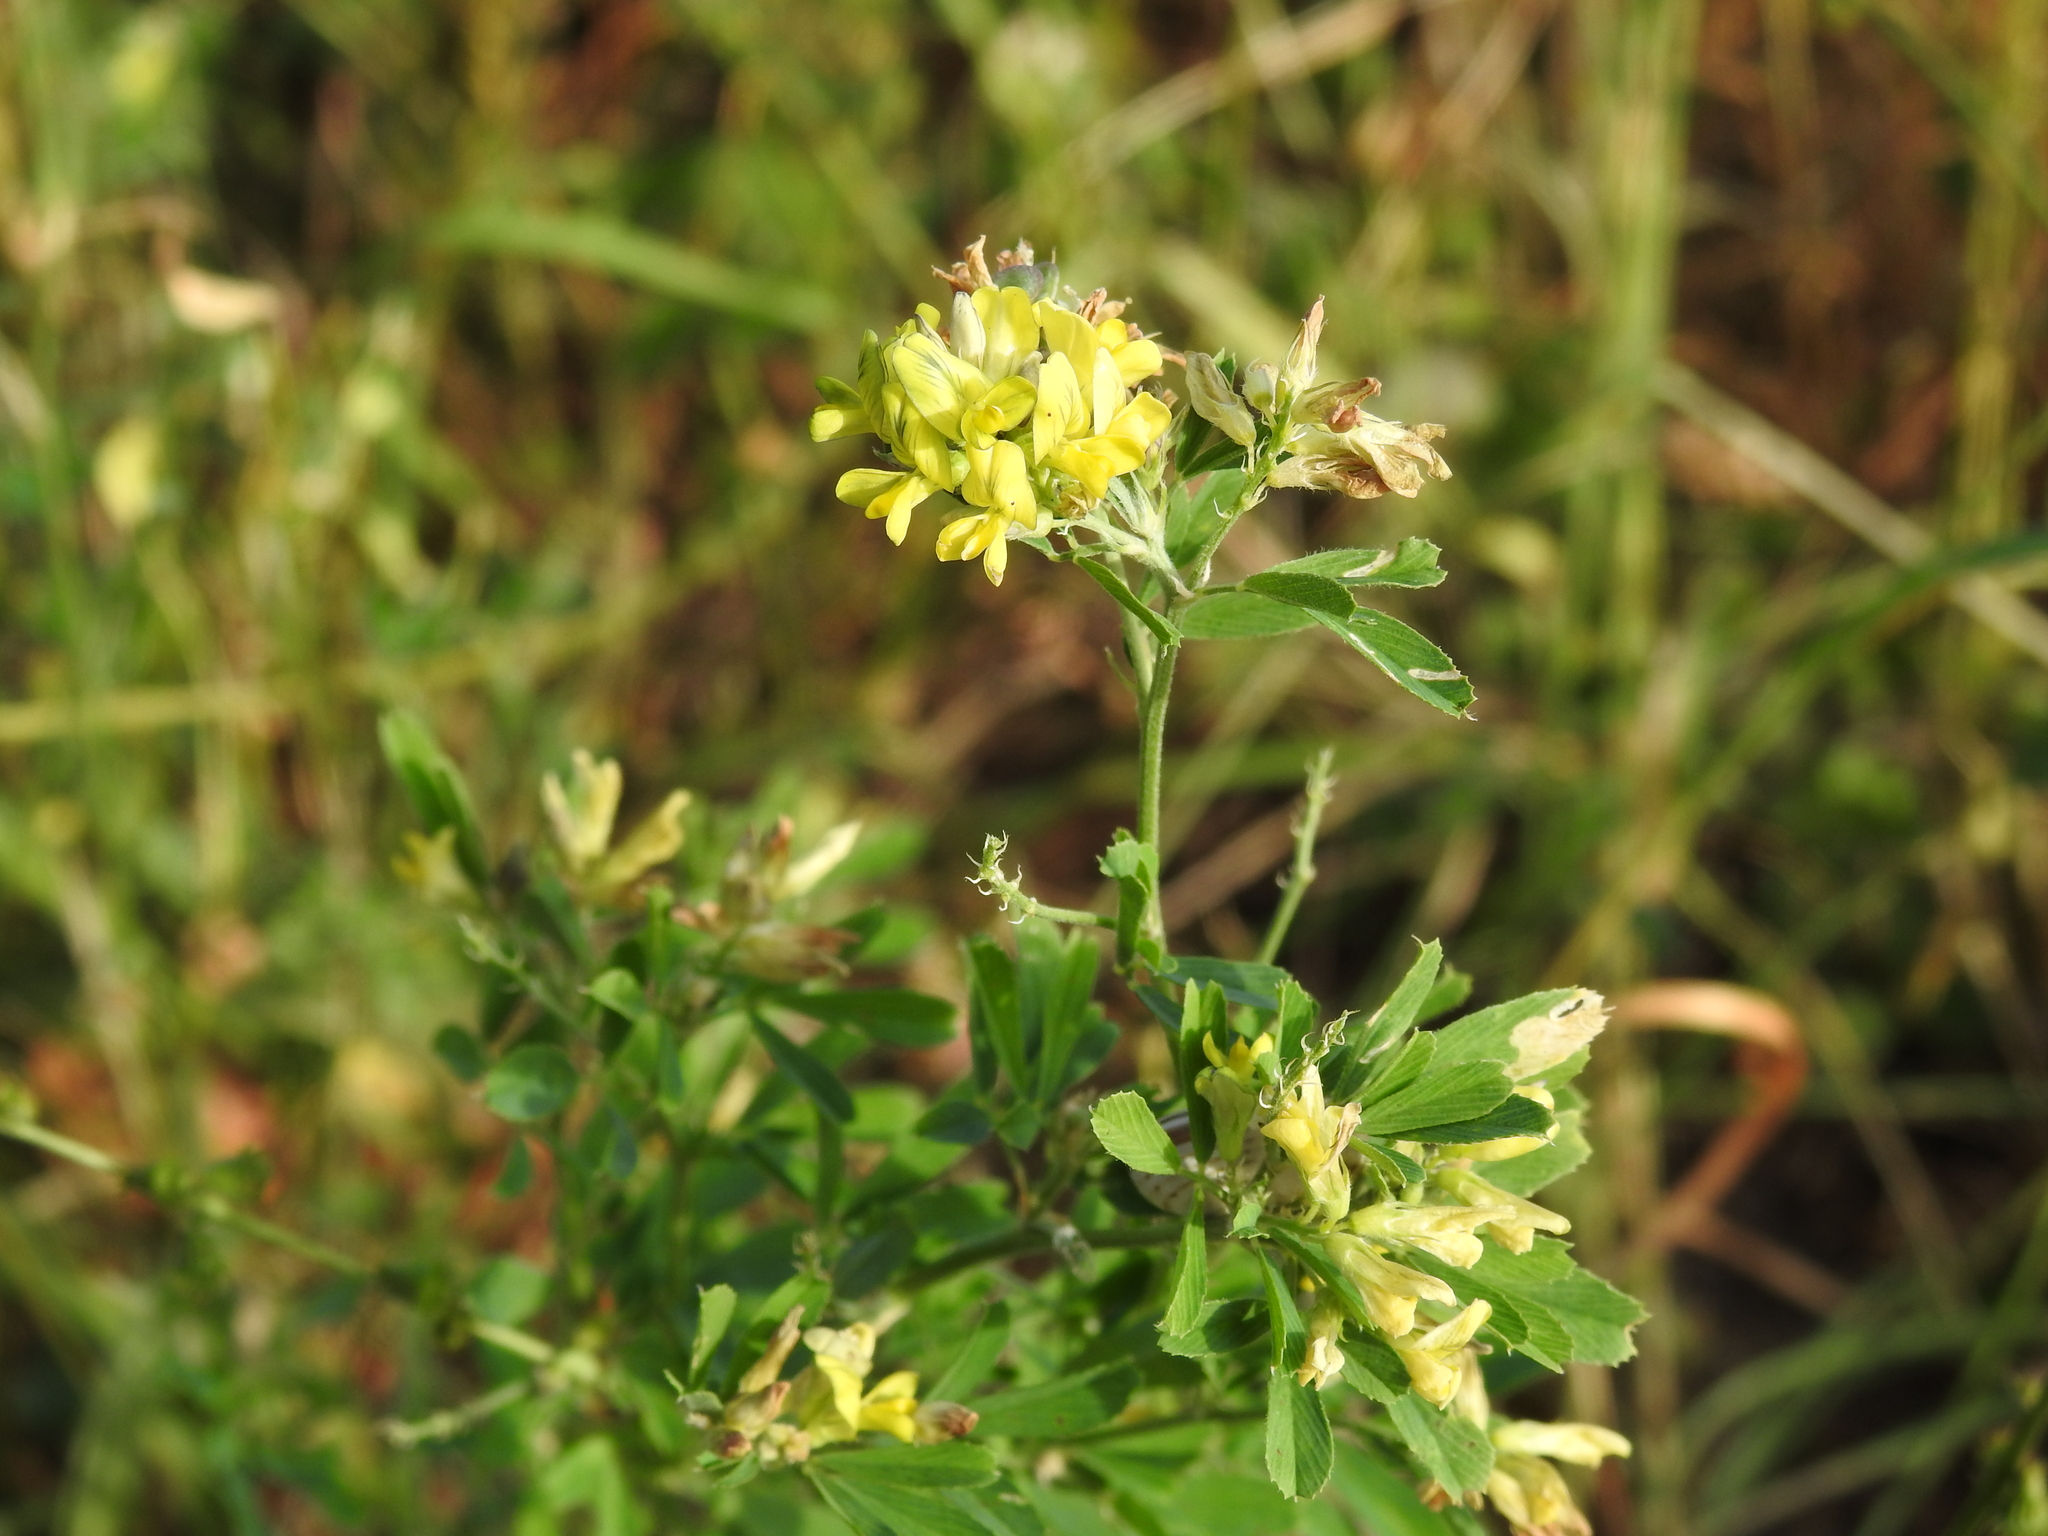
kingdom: Plantae
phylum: Tracheophyta
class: Magnoliopsida
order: Fabales
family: Fabaceae
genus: Medicago
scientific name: Medicago falcata
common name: Sickle medick
